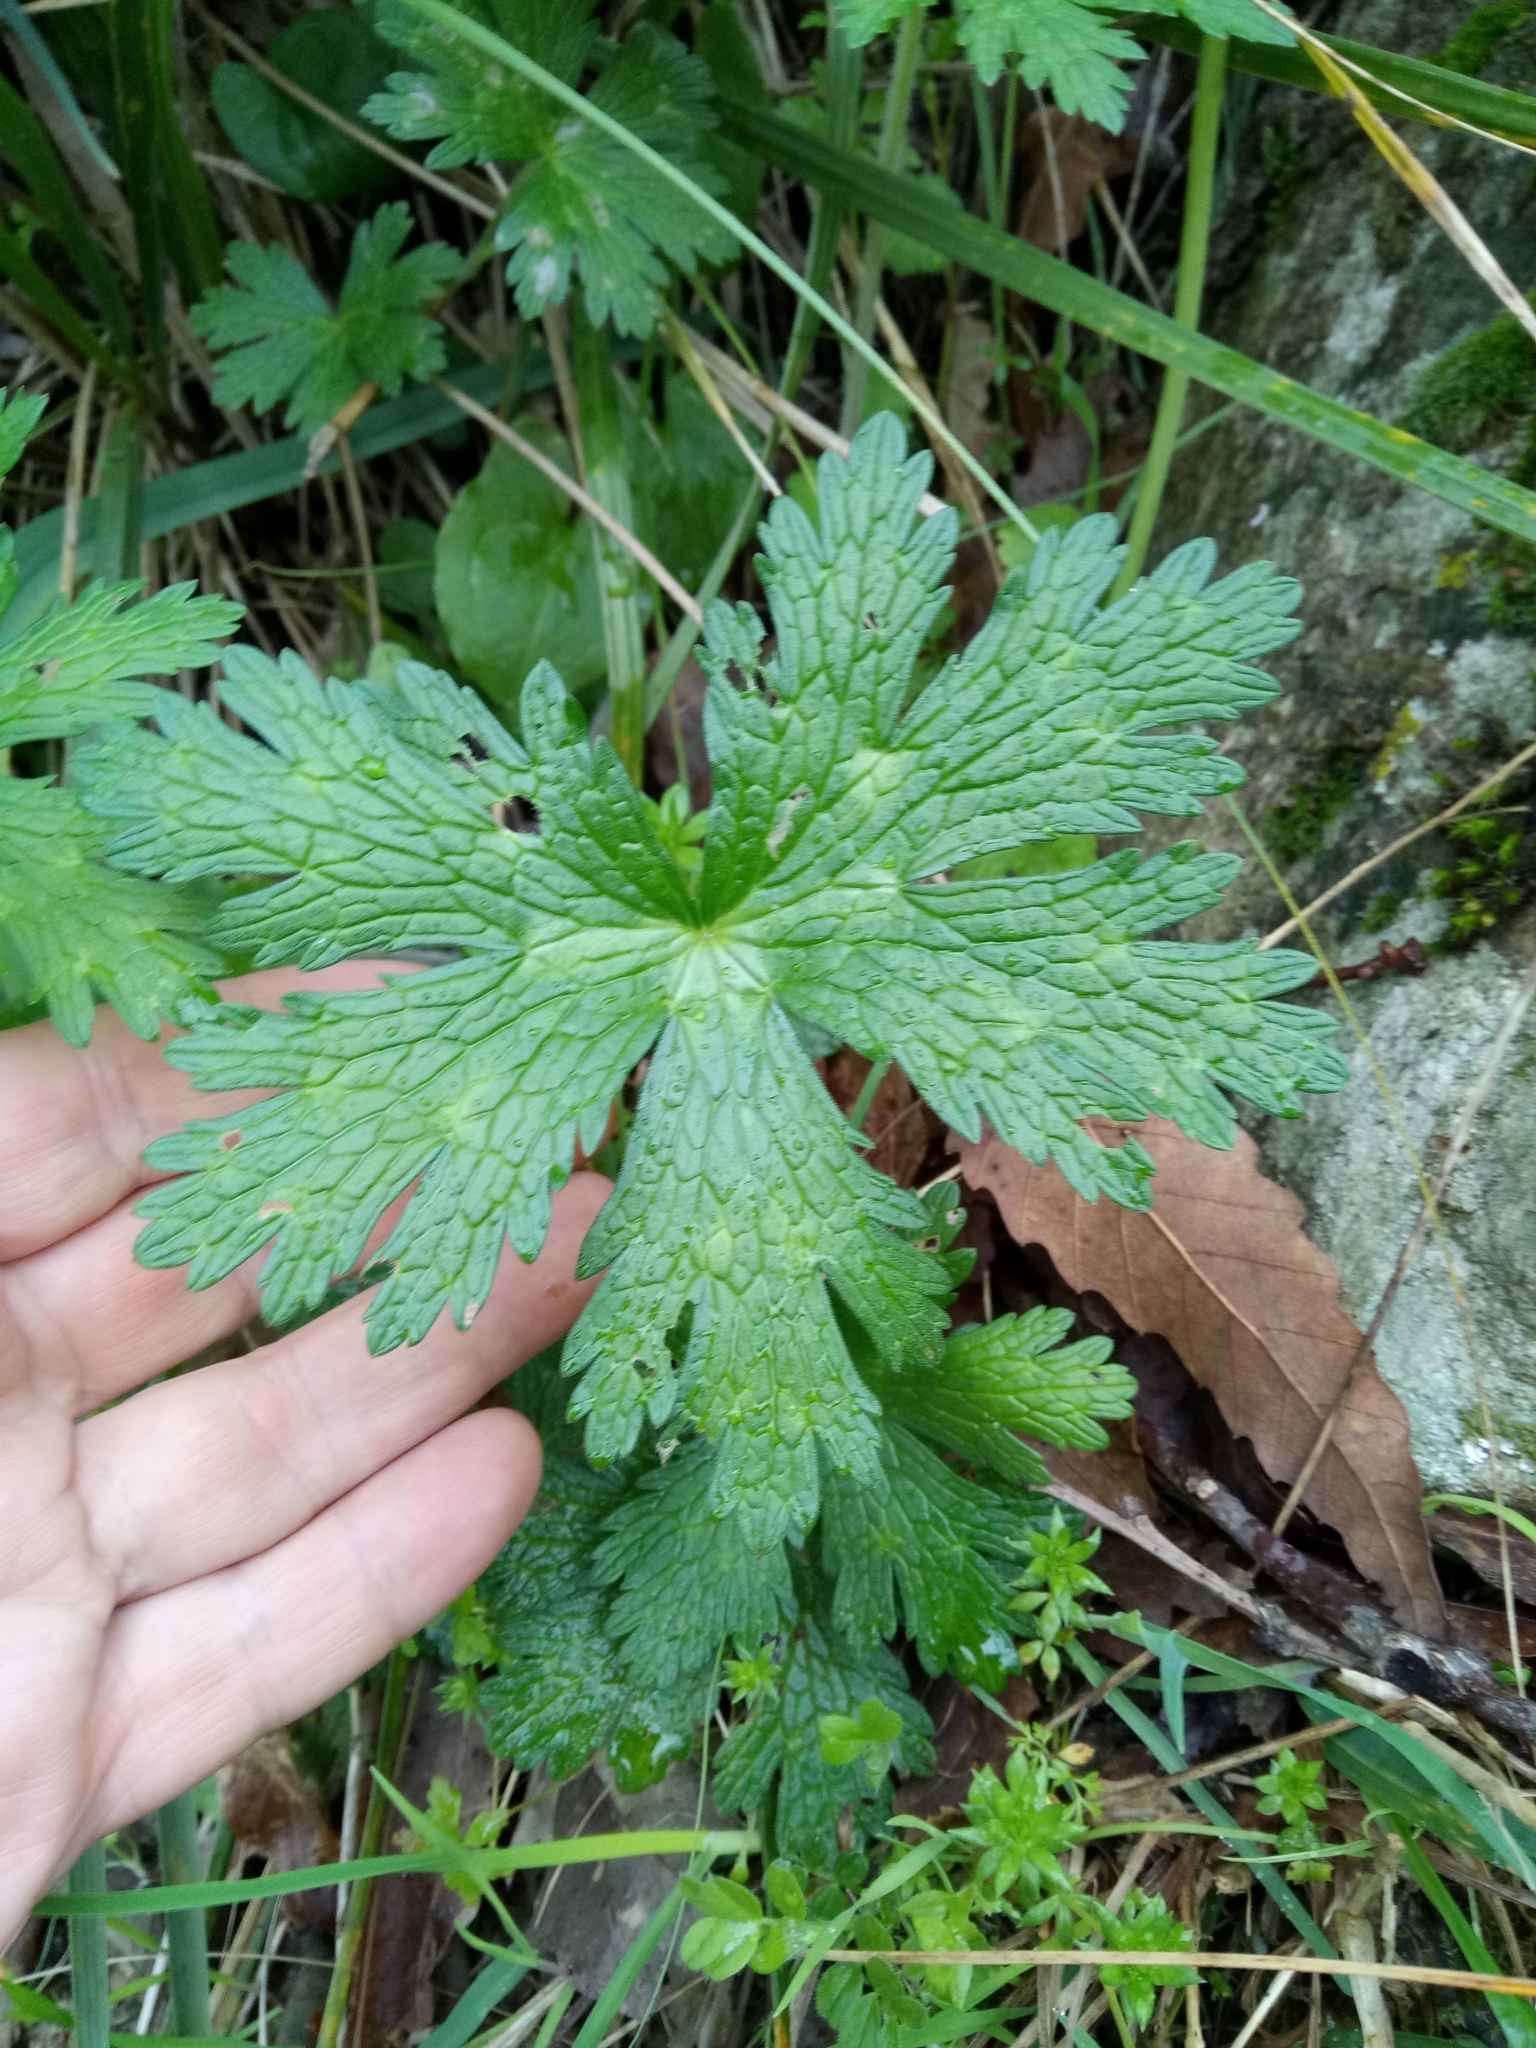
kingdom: Plantae
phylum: Tracheophyta
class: Magnoliopsida
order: Geraniales
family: Geraniaceae
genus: Geranium
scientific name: Geranium atlanticum
